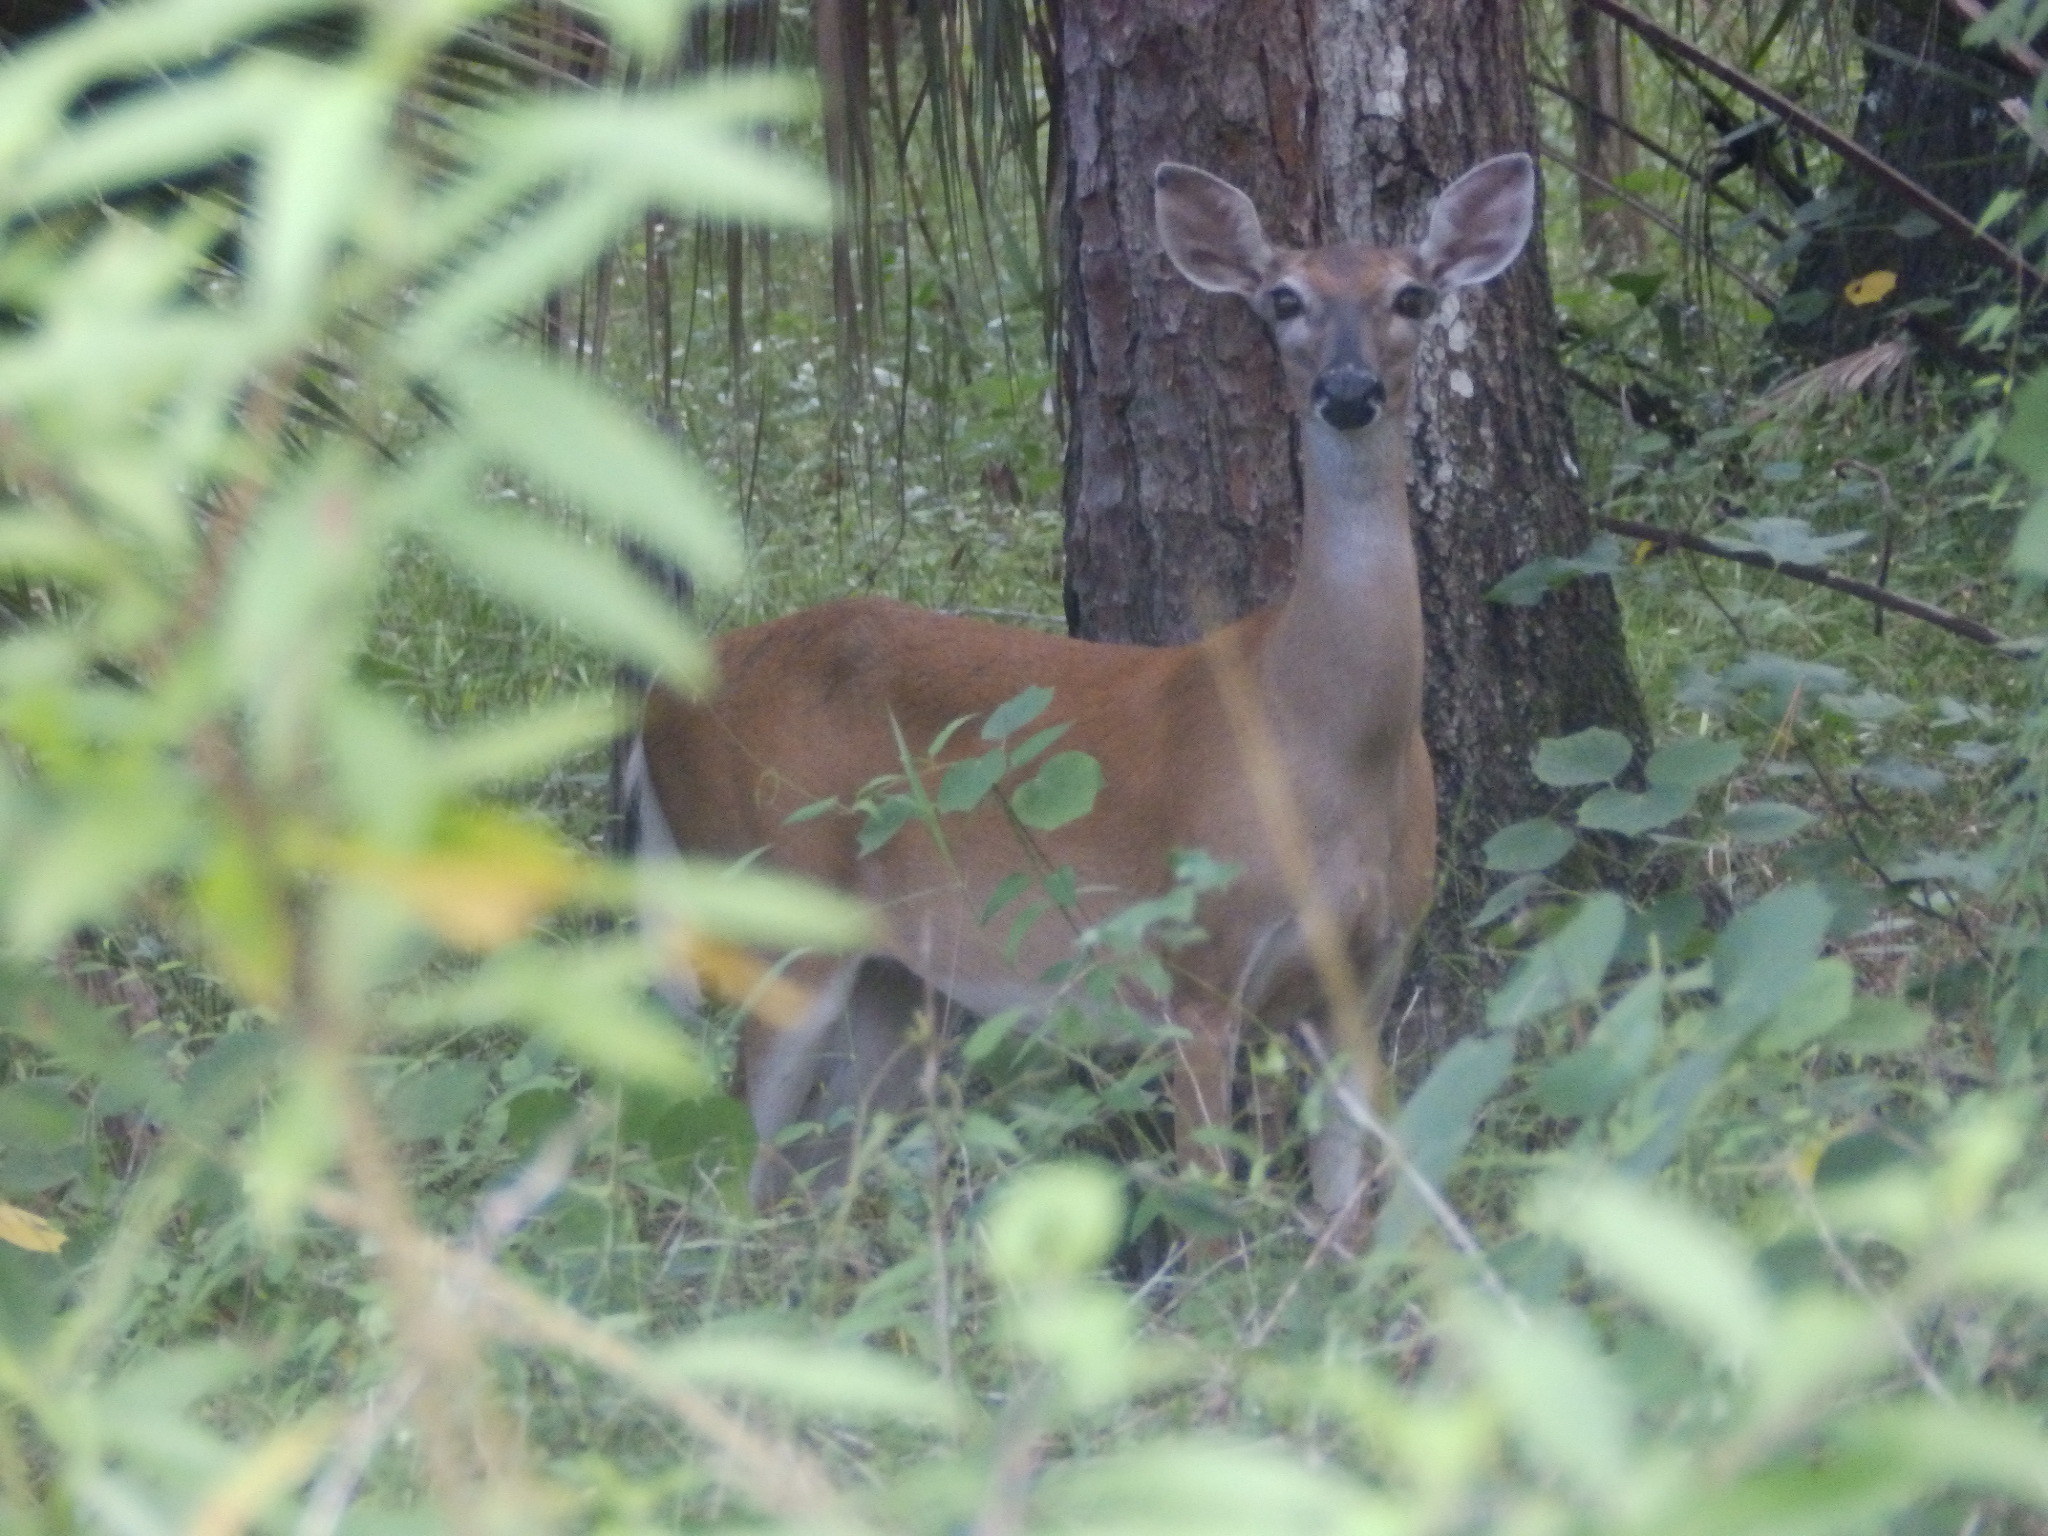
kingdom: Animalia
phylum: Chordata
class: Mammalia
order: Artiodactyla
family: Cervidae
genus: Odocoileus
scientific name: Odocoileus virginianus
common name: White-tailed deer
